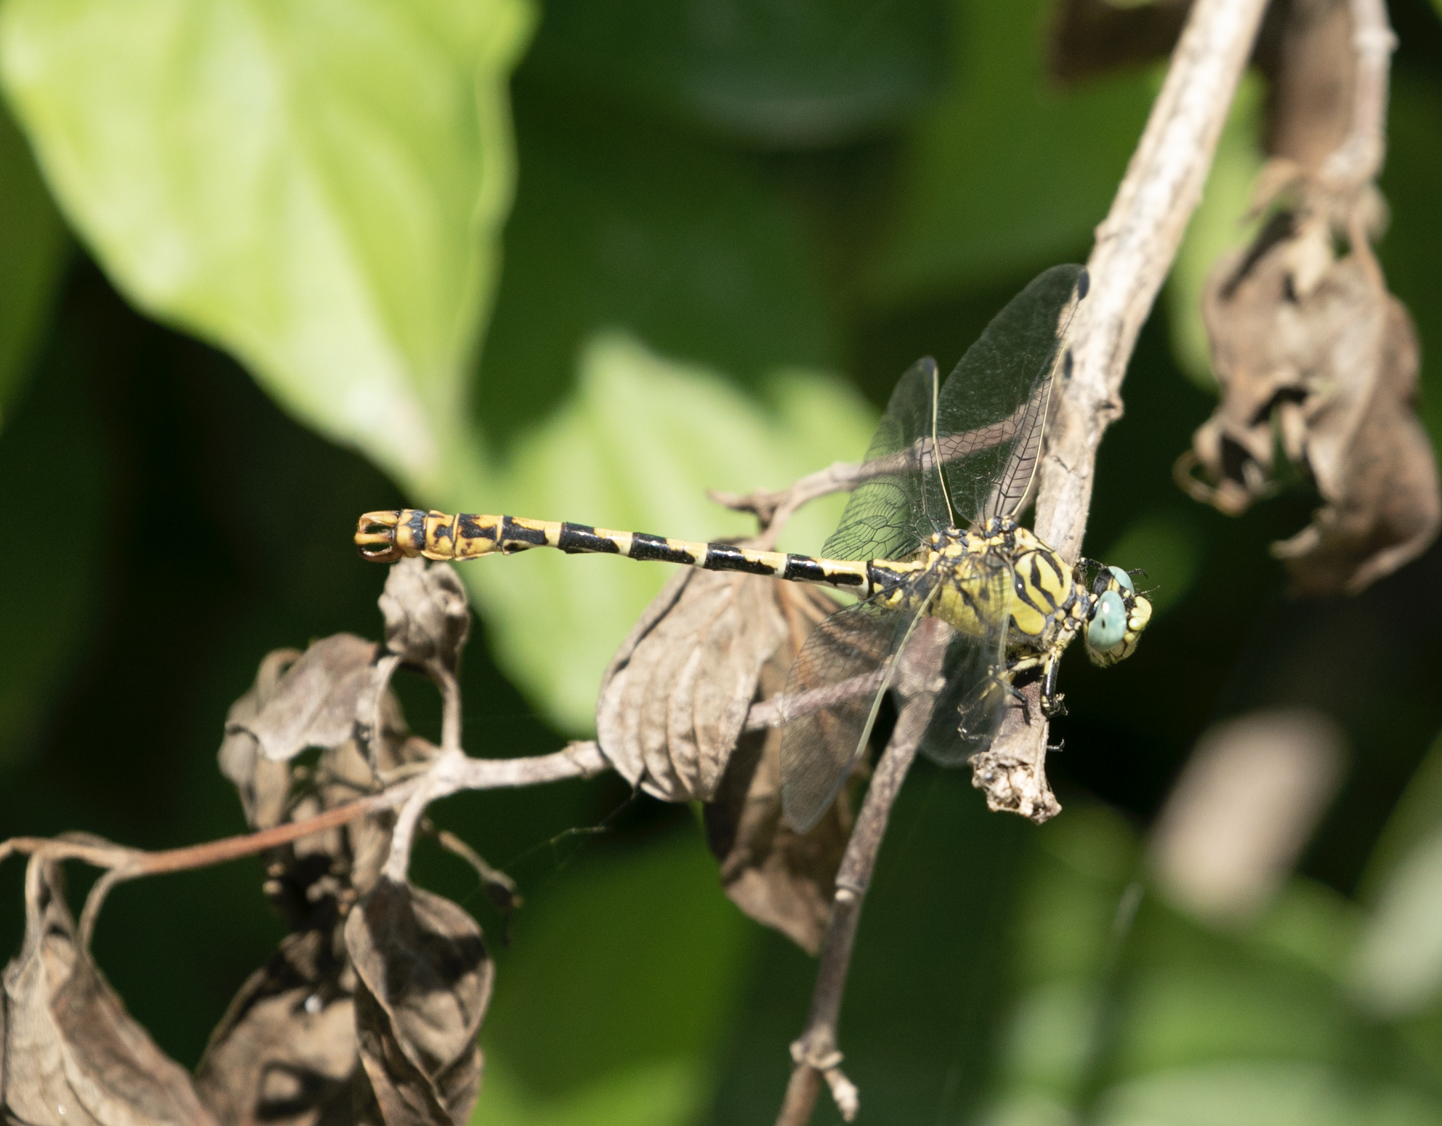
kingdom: Animalia
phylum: Arthropoda
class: Insecta
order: Odonata
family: Gomphidae
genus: Onychogomphus
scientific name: Onychogomphus forcipatus
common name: Small pincertail
